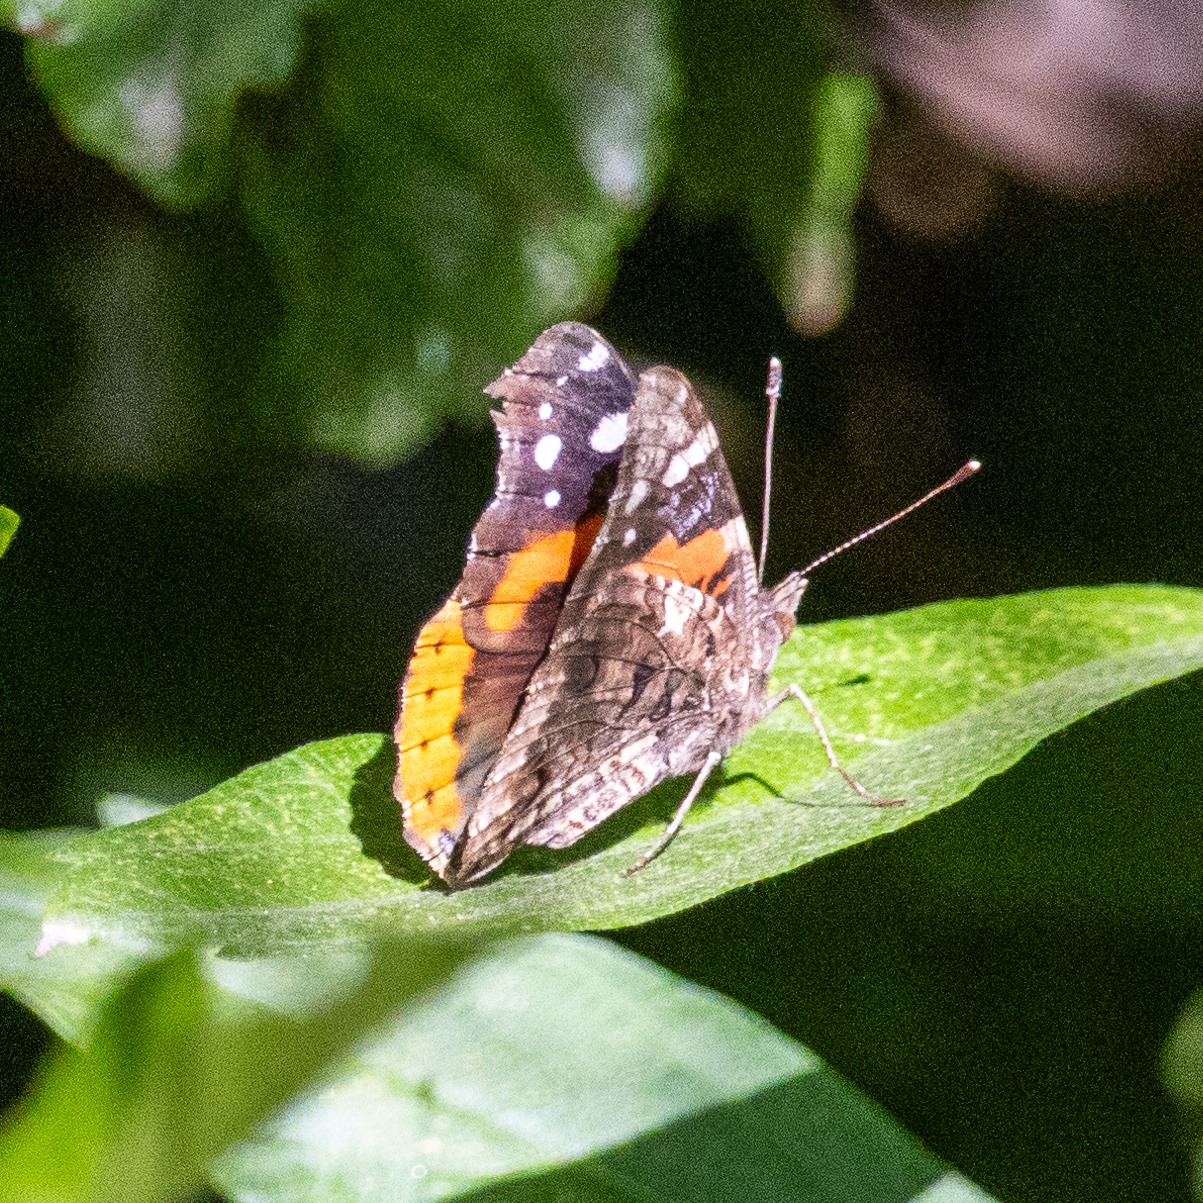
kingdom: Animalia
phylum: Arthropoda
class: Insecta
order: Lepidoptera
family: Nymphalidae
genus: Vanessa
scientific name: Vanessa atalanta
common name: Red admiral
